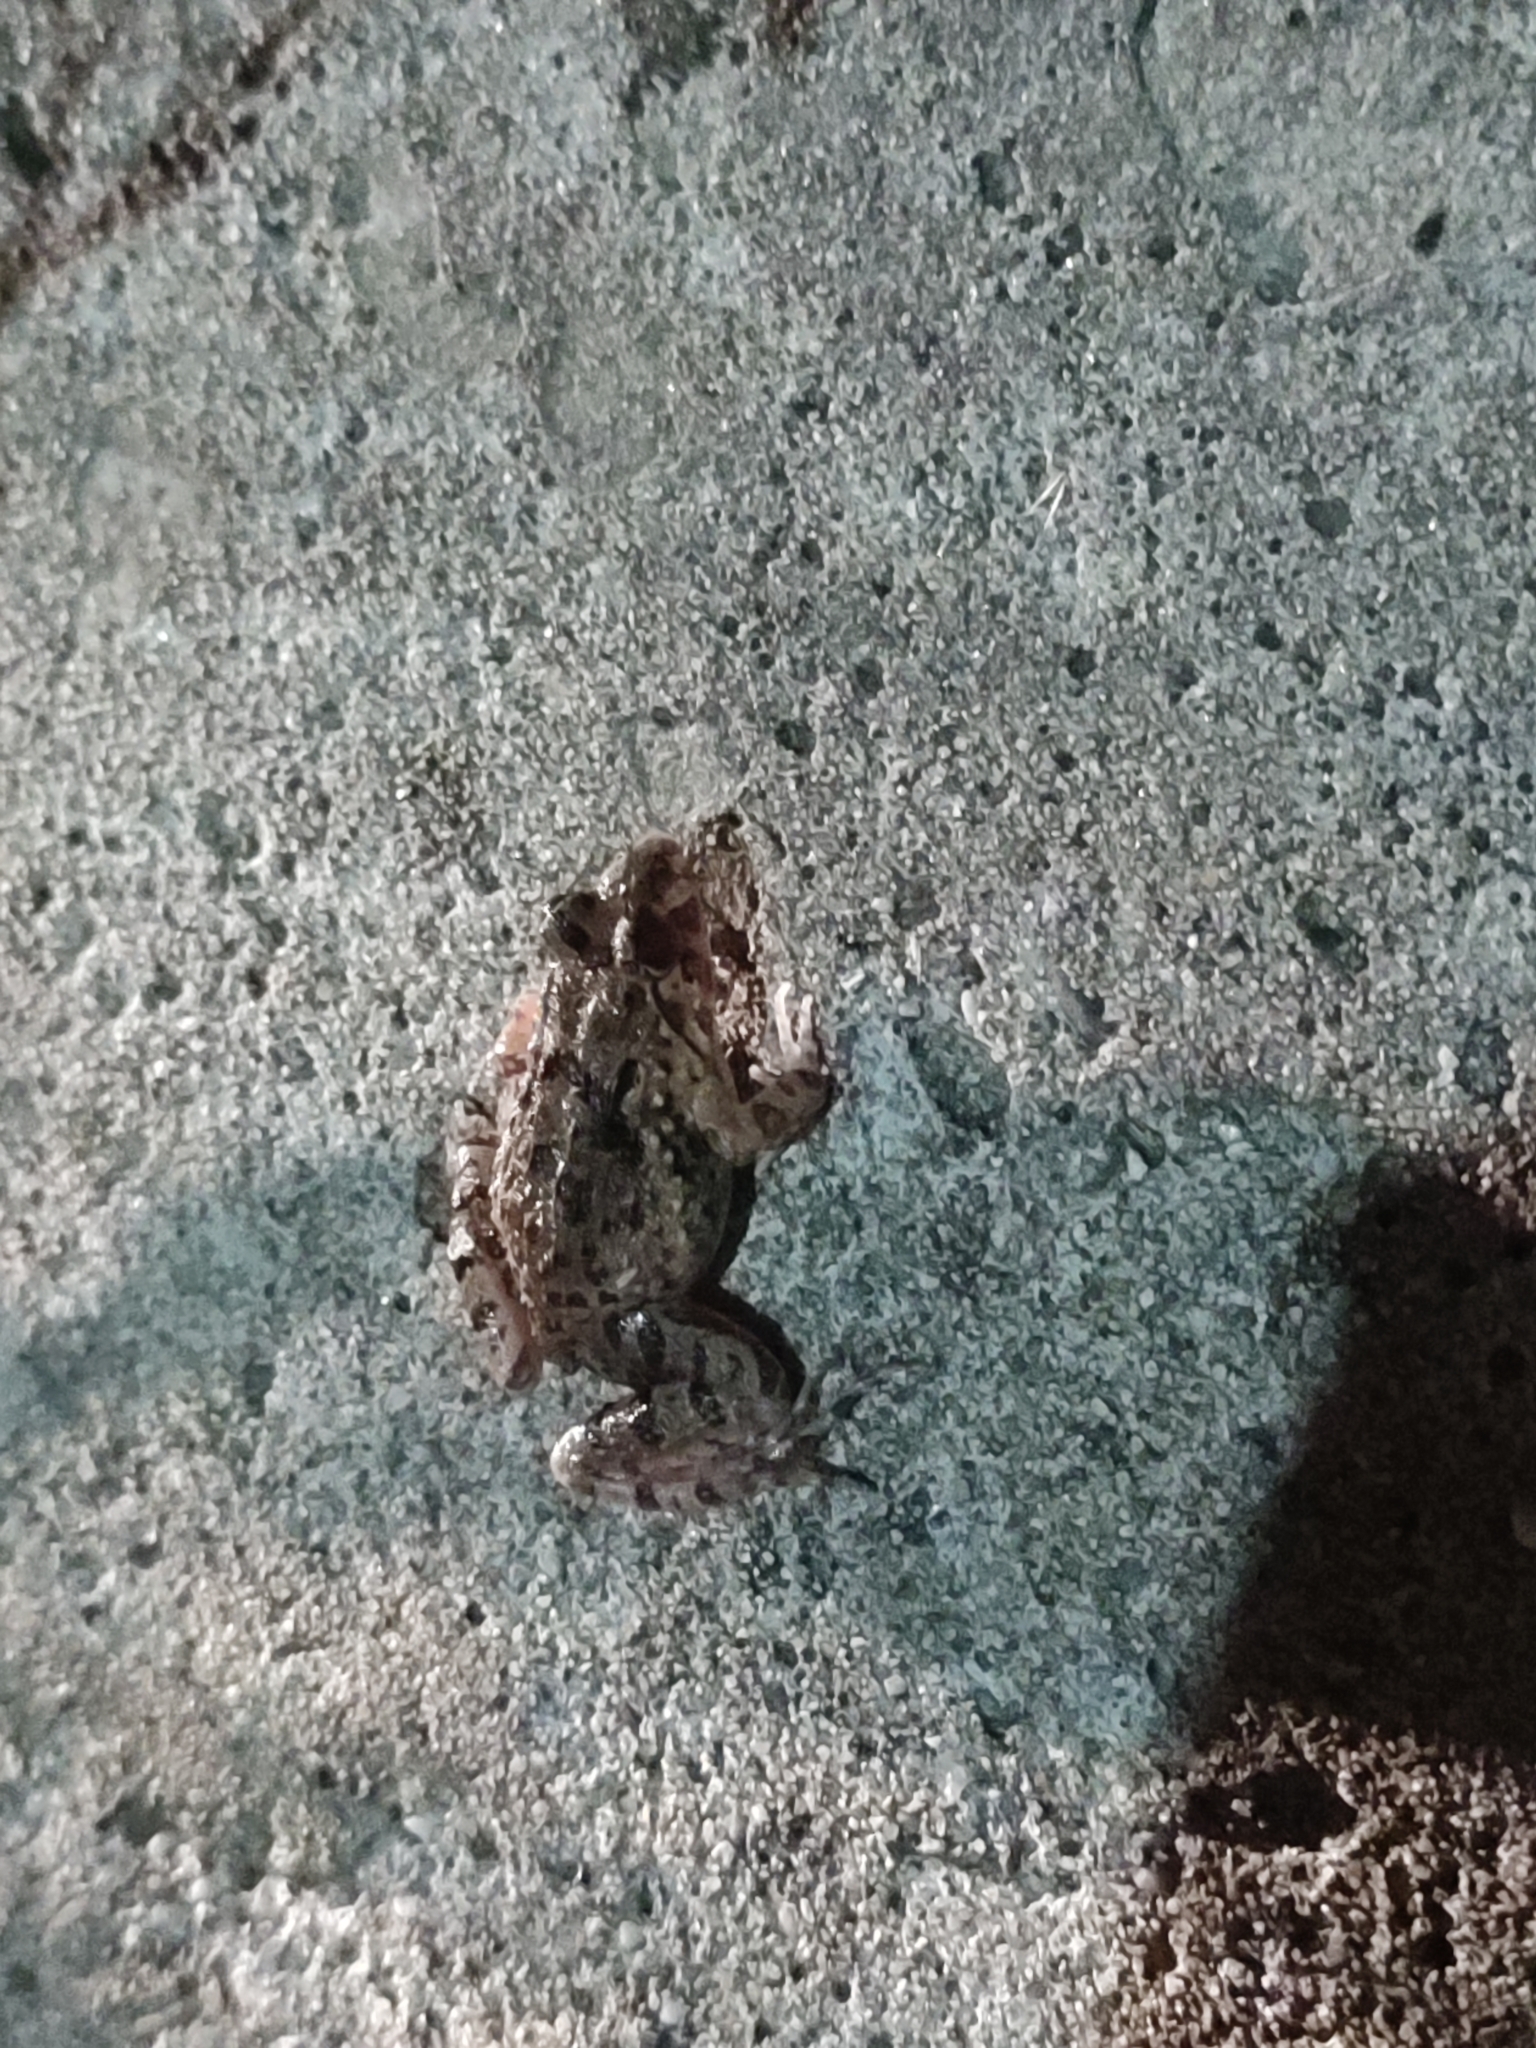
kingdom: Animalia
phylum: Chordata
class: Amphibia
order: Anura
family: Dicroglossidae
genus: Fejervarya
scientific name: Fejervarya limnocharis
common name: Asian grass frog/common pond frog/field frog/grass frog/indian rice frog
